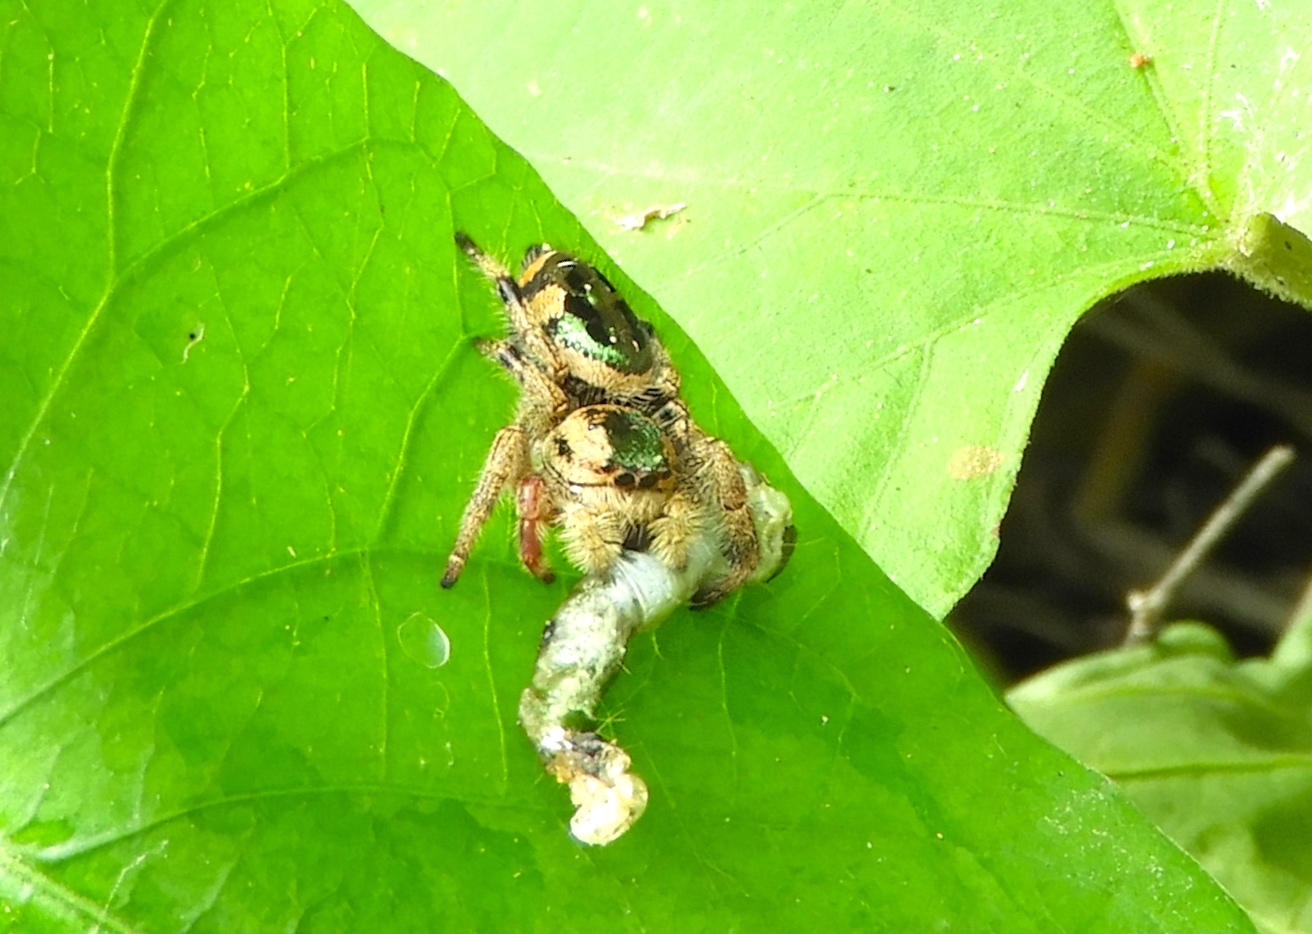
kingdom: Animalia
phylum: Arthropoda
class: Arachnida
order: Araneae
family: Salticidae
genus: Paraphidippus
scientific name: Paraphidippus aurantius
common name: Jumping spiders
